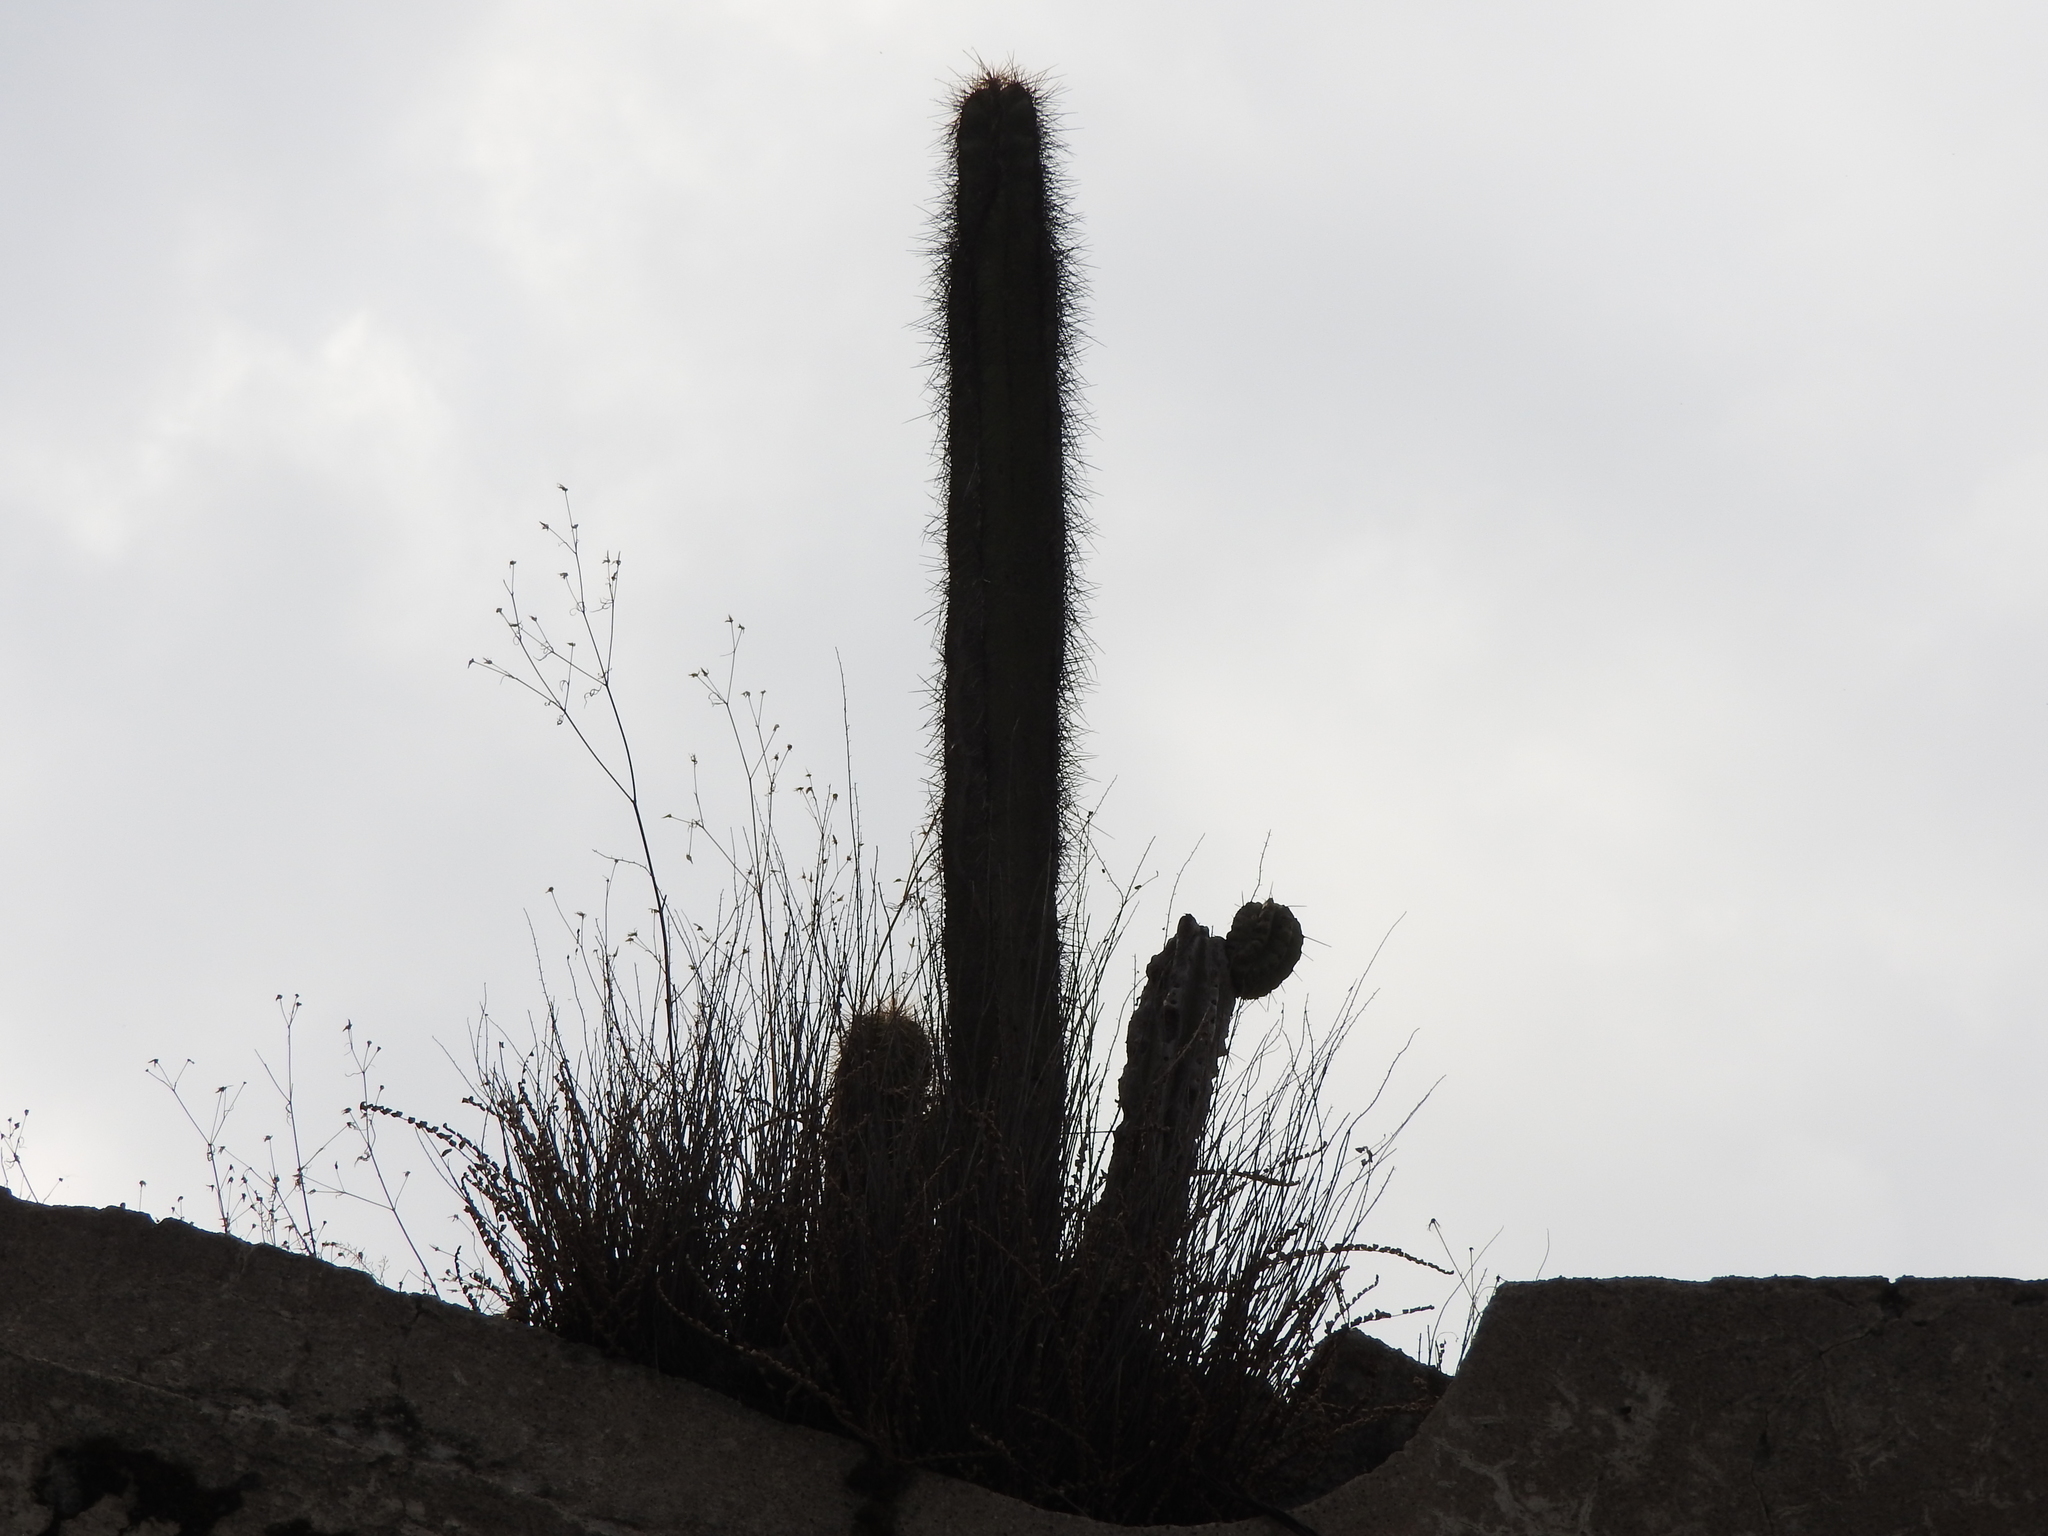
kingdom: Plantae
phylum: Tracheophyta
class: Magnoliopsida
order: Caryophyllales
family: Cactaceae
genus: Stenocereus
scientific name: Stenocereus queretaroensis
